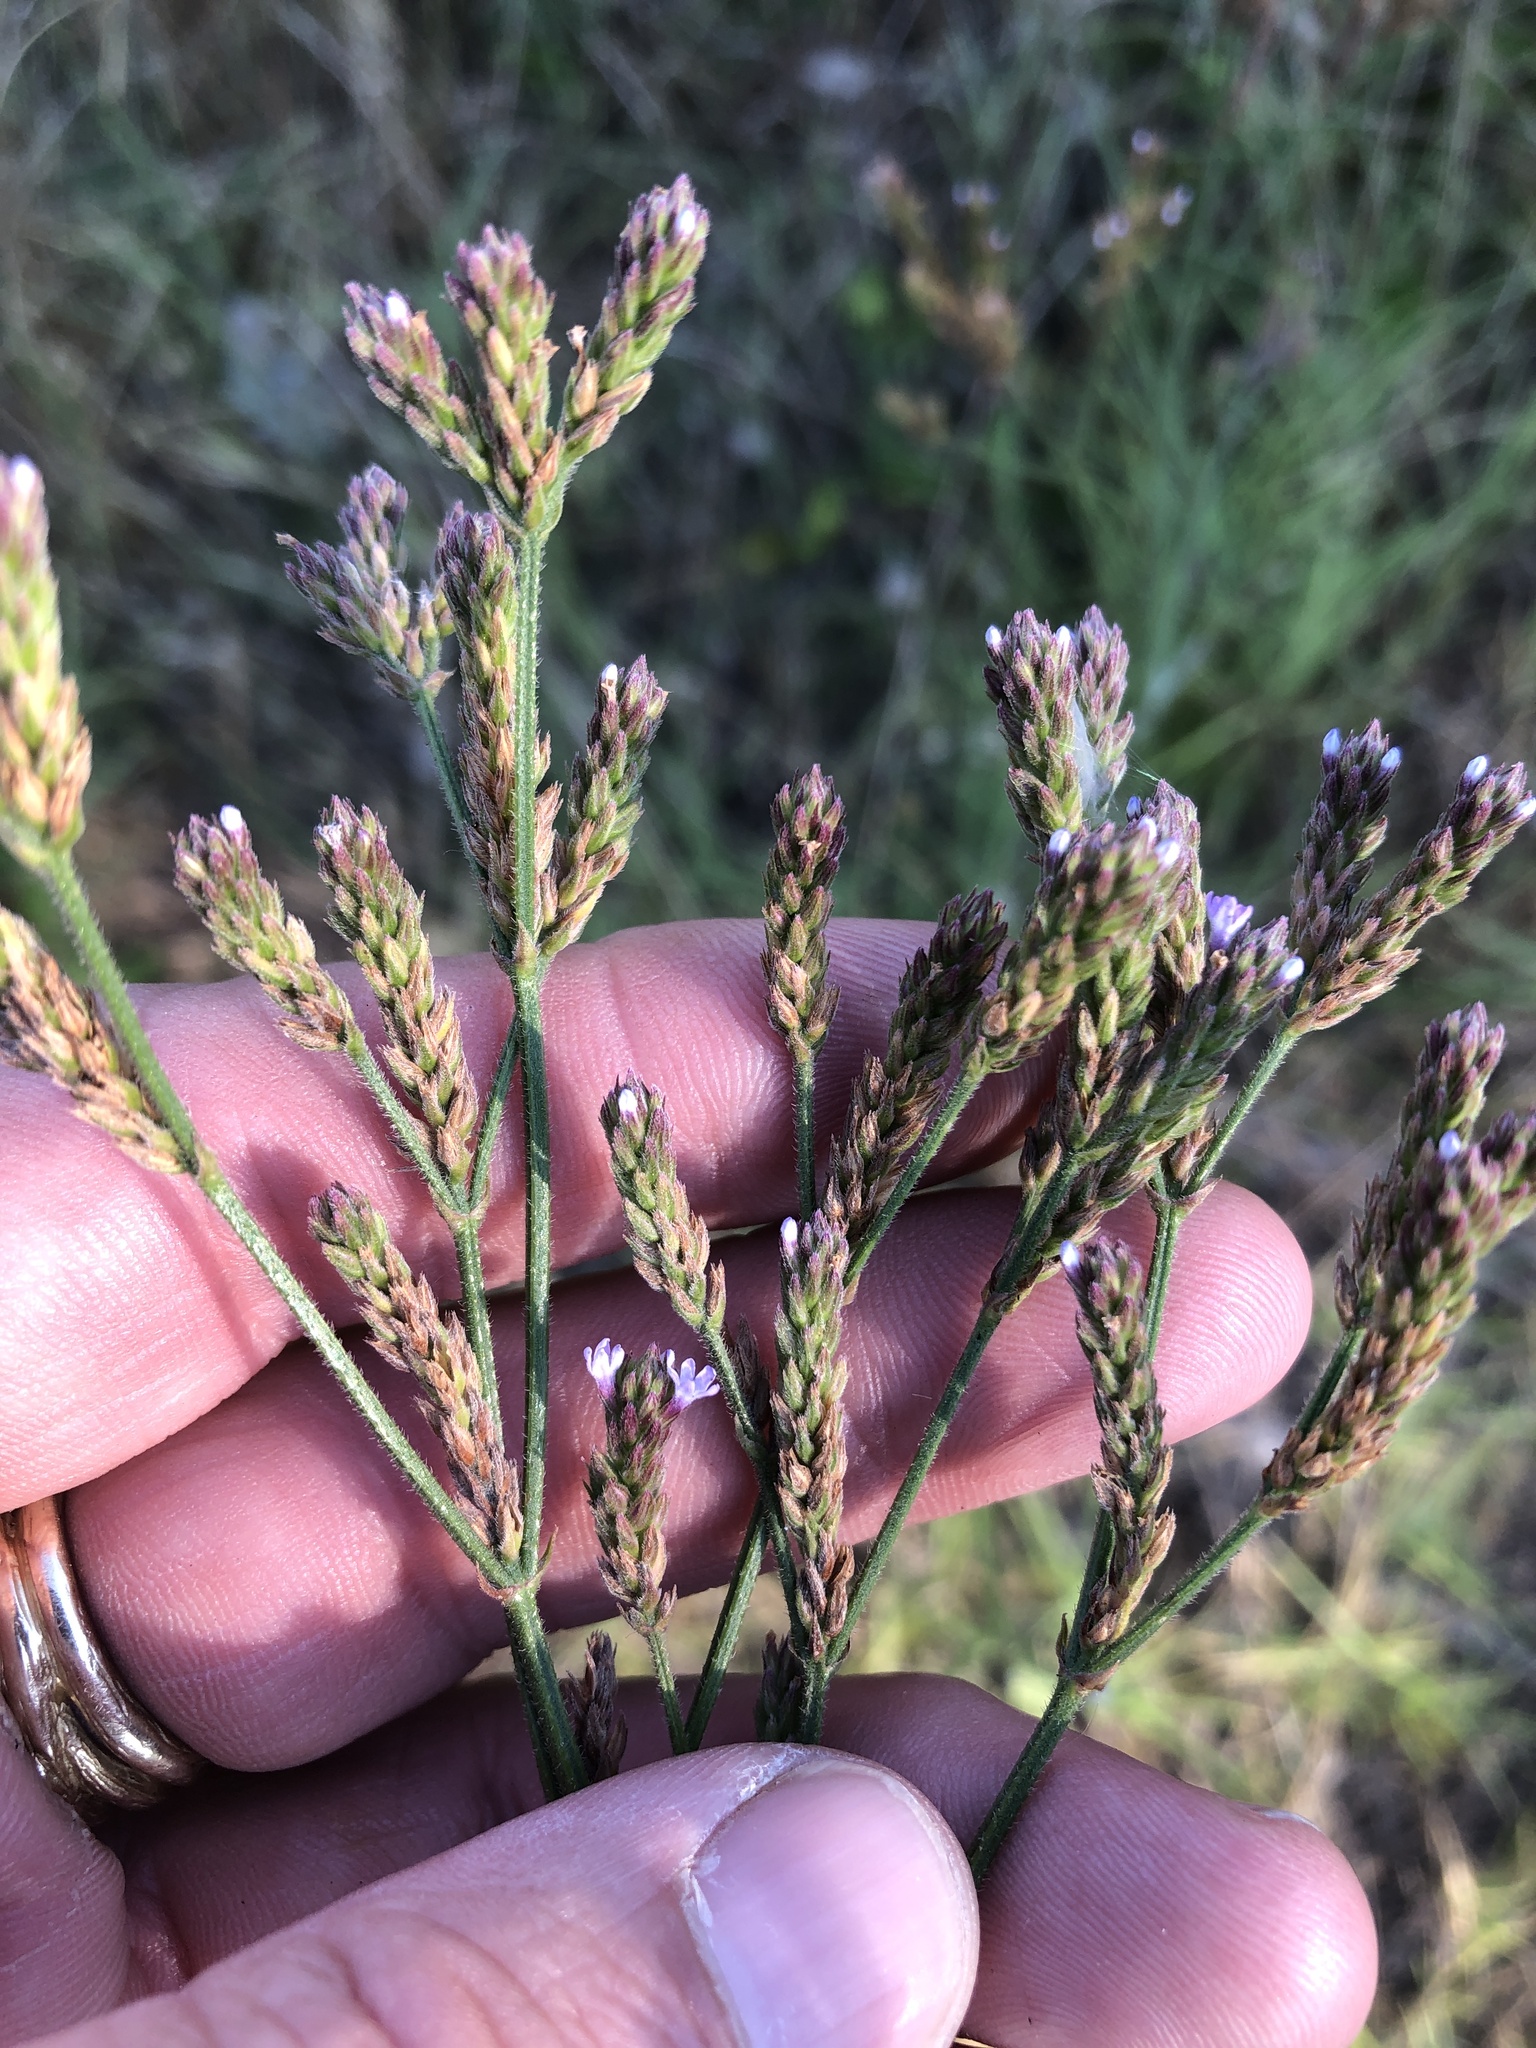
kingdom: Plantae
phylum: Tracheophyta
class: Magnoliopsida
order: Lamiales
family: Verbenaceae
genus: Verbena
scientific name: Verbena brasiliensis
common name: Brazilian vervain
